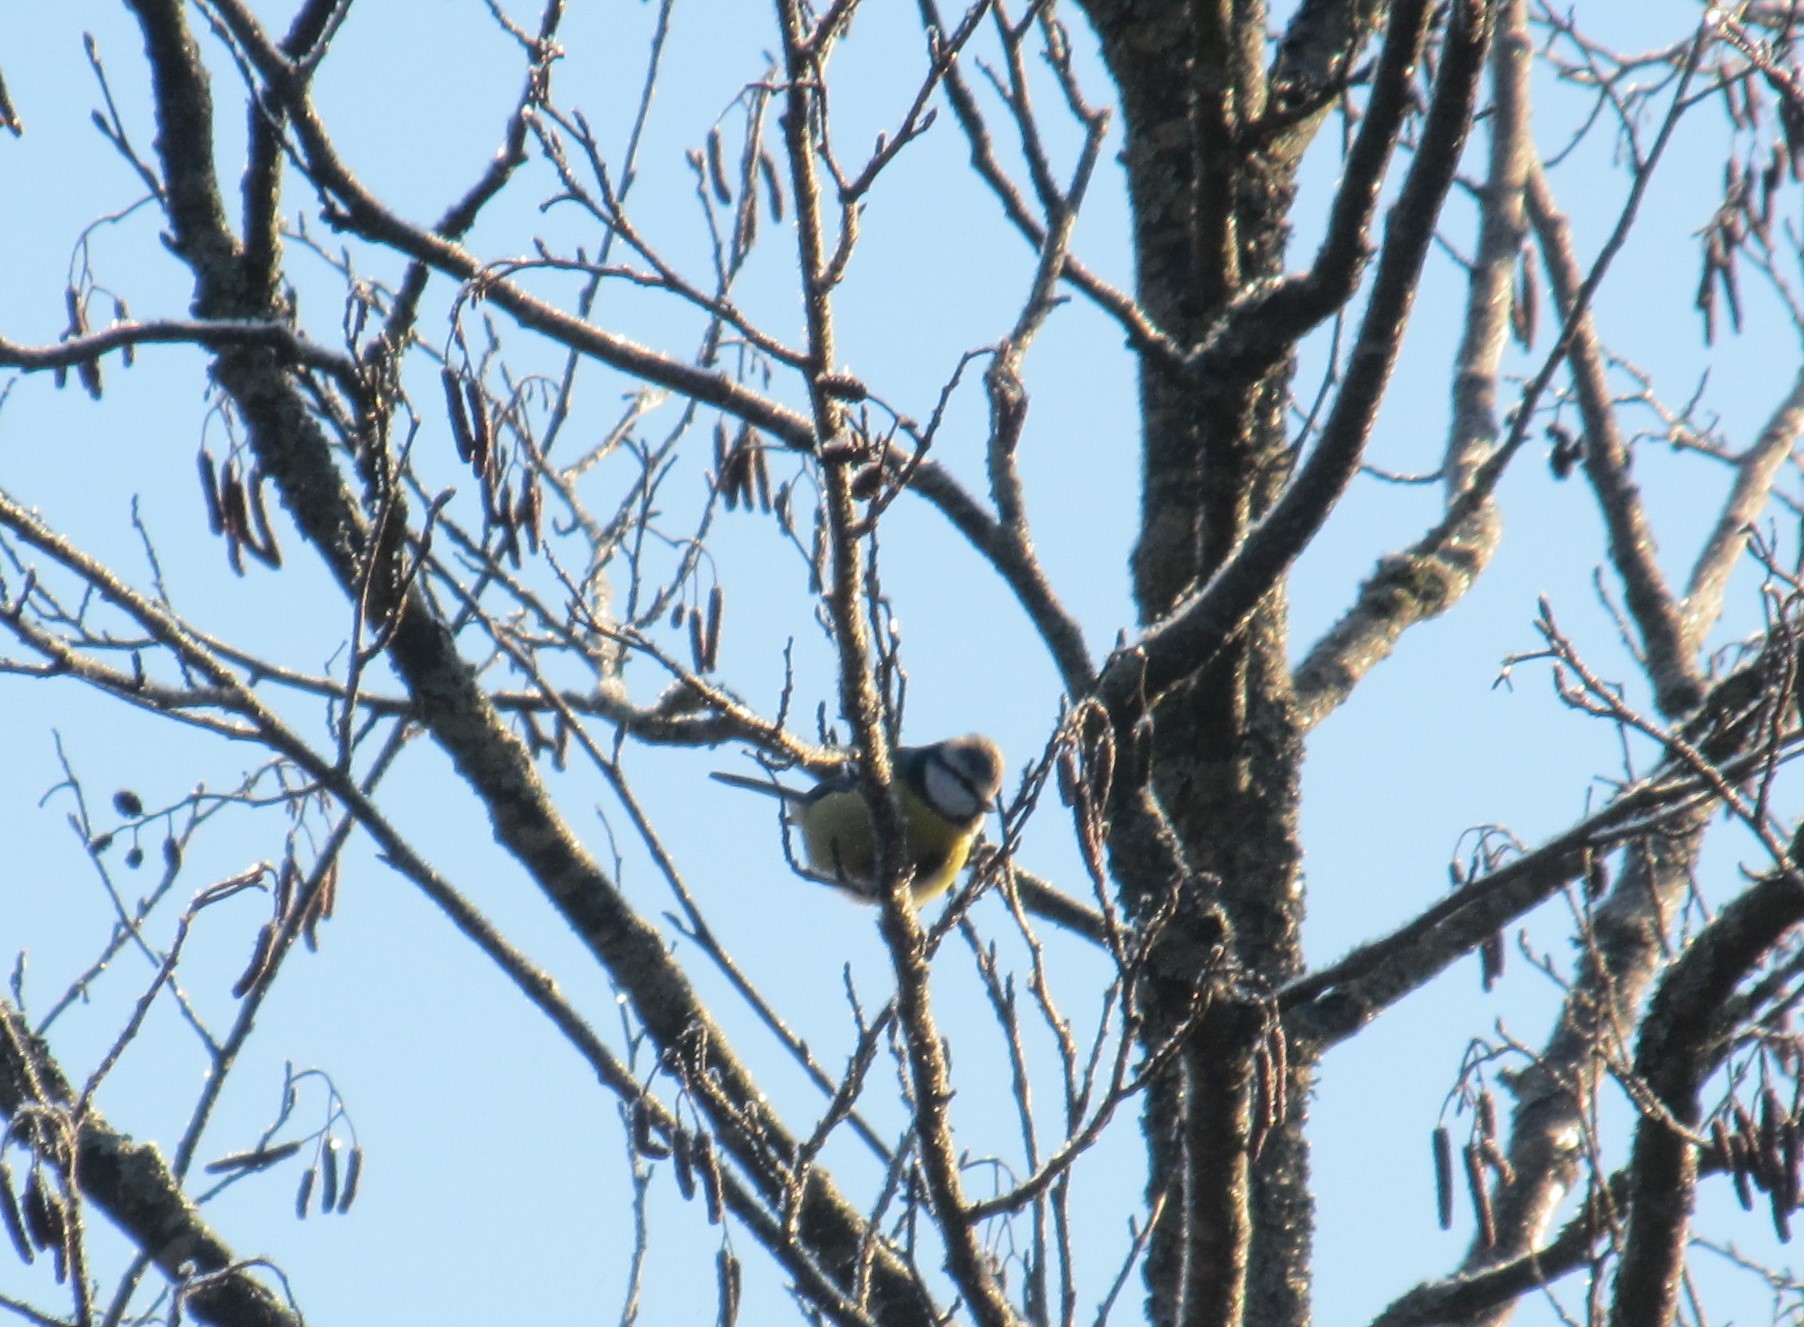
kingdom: Animalia
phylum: Chordata
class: Aves
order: Passeriformes
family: Paridae
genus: Cyanistes
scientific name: Cyanistes caeruleus
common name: Eurasian blue tit
